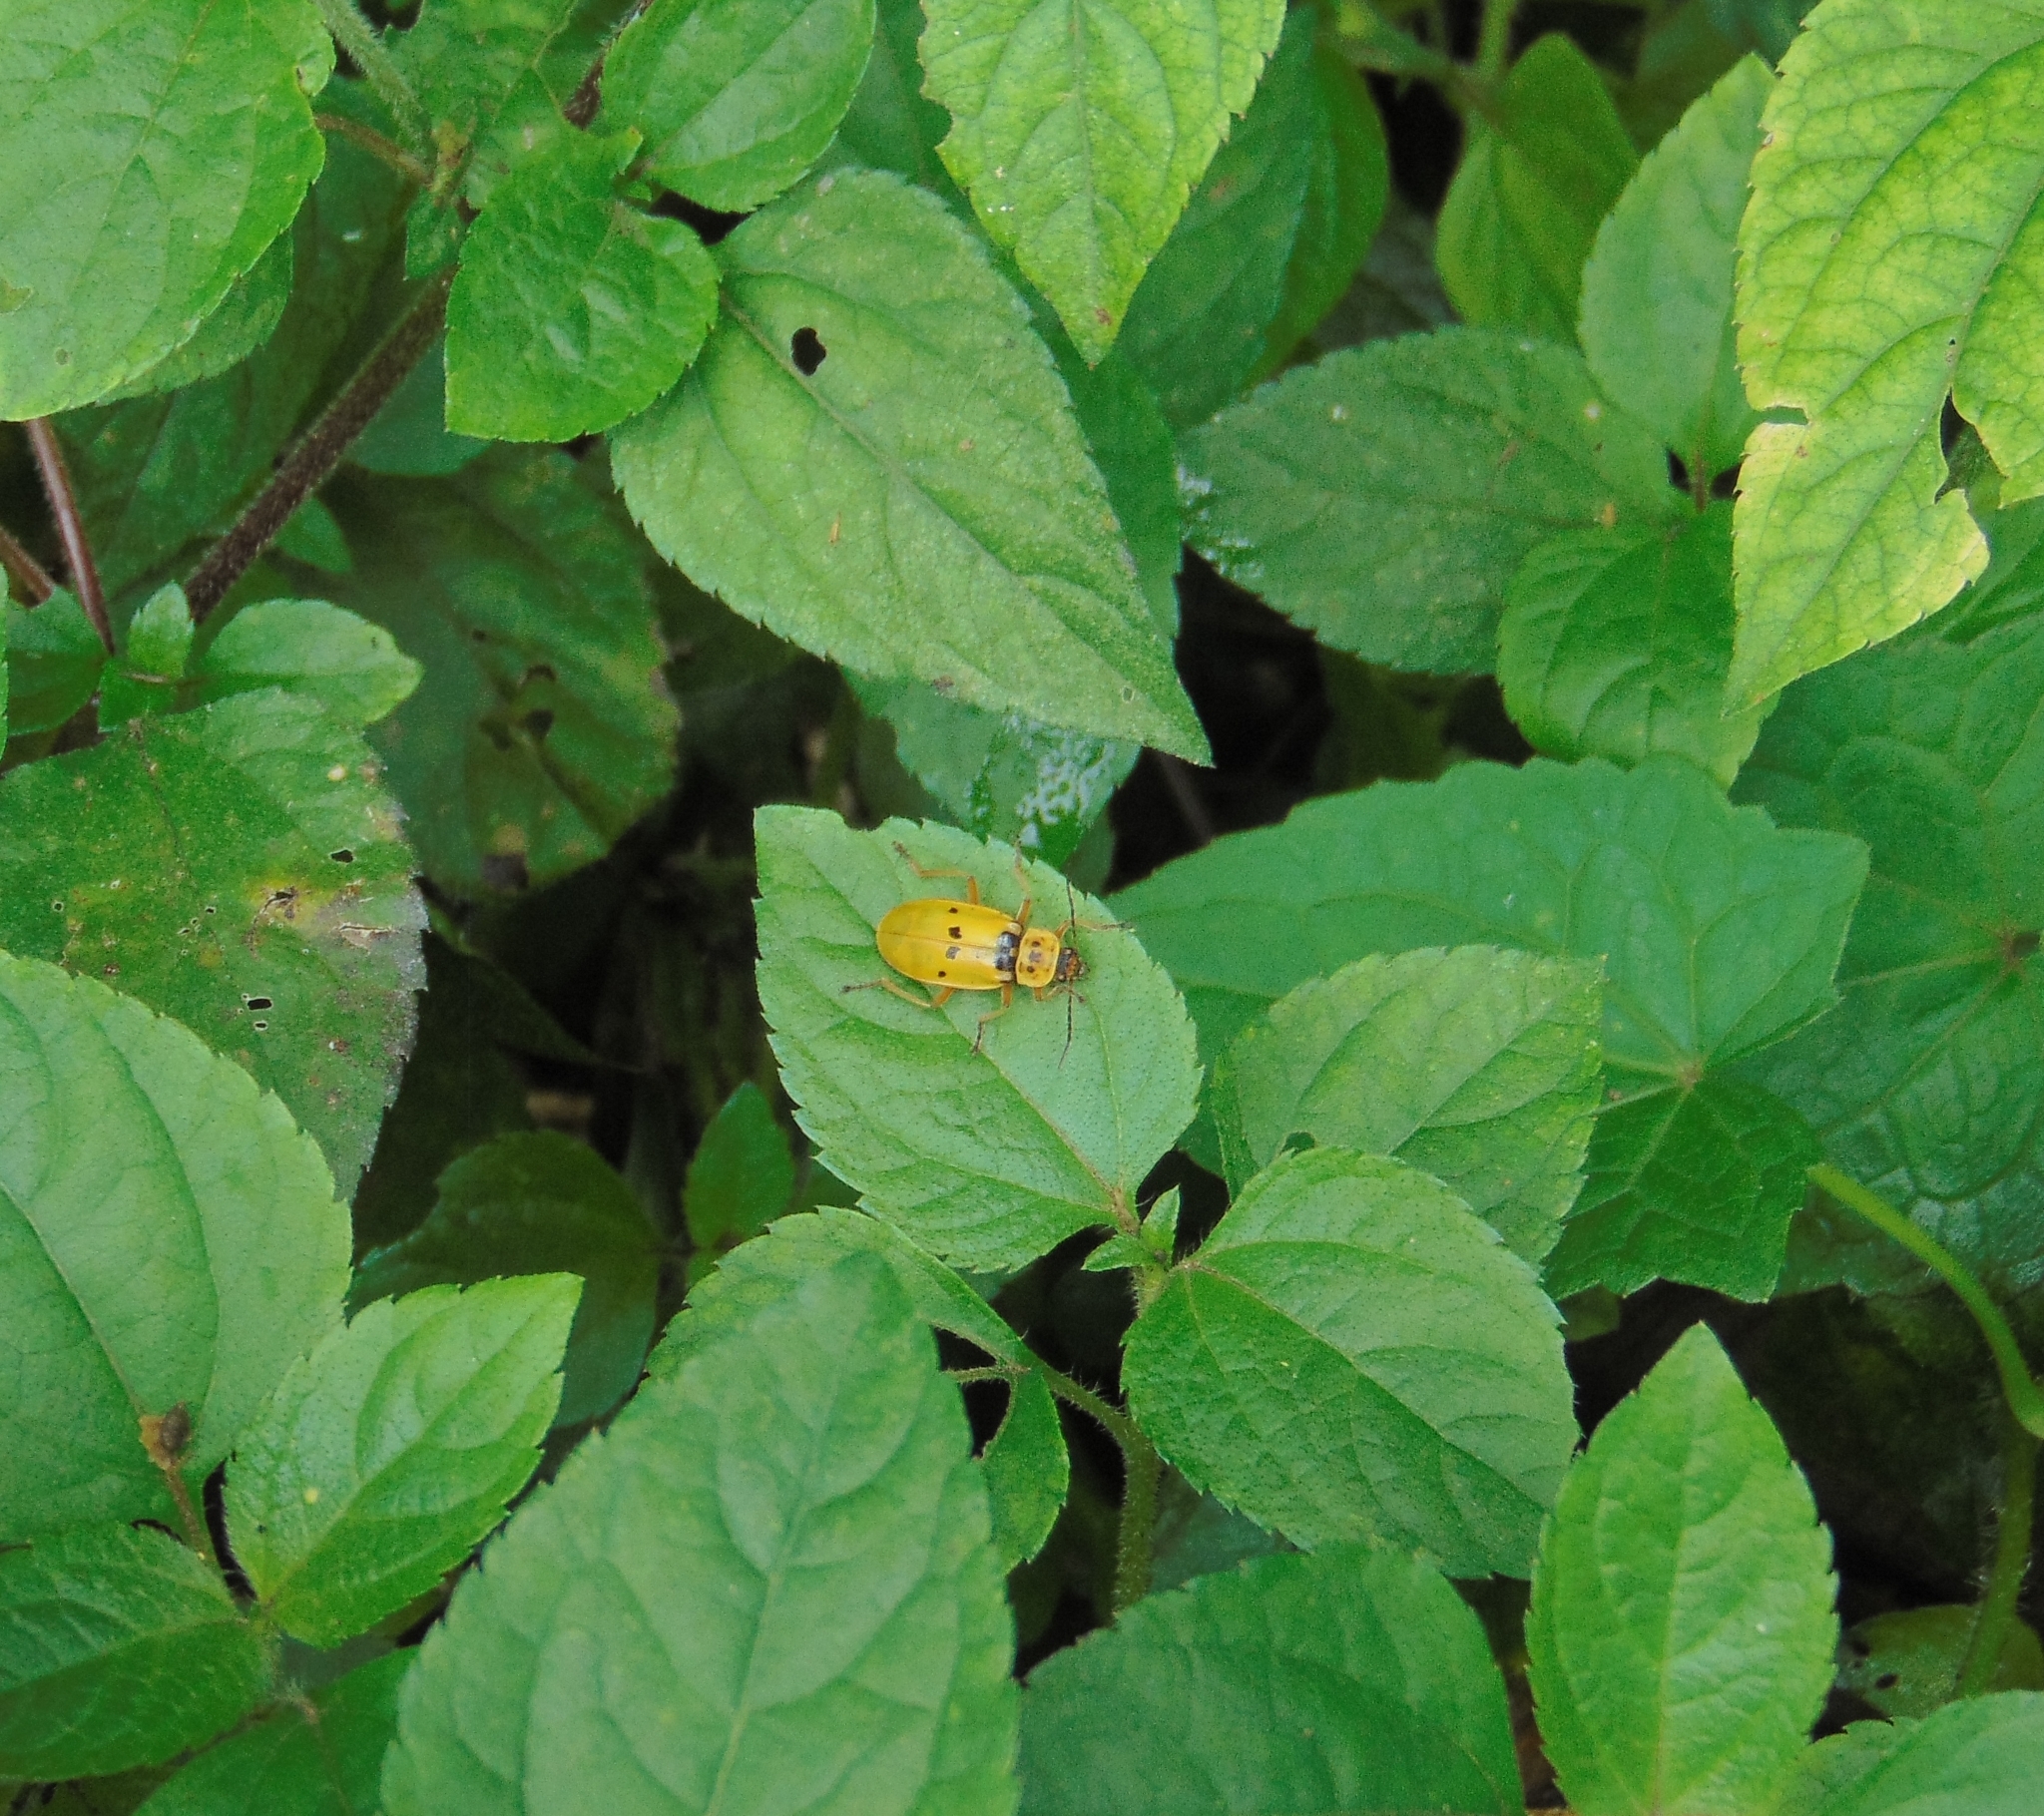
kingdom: Animalia
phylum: Arthropoda
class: Insecta
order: Coleoptera
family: Cantharidae
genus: Chauliognathus
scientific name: Chauliognathus
